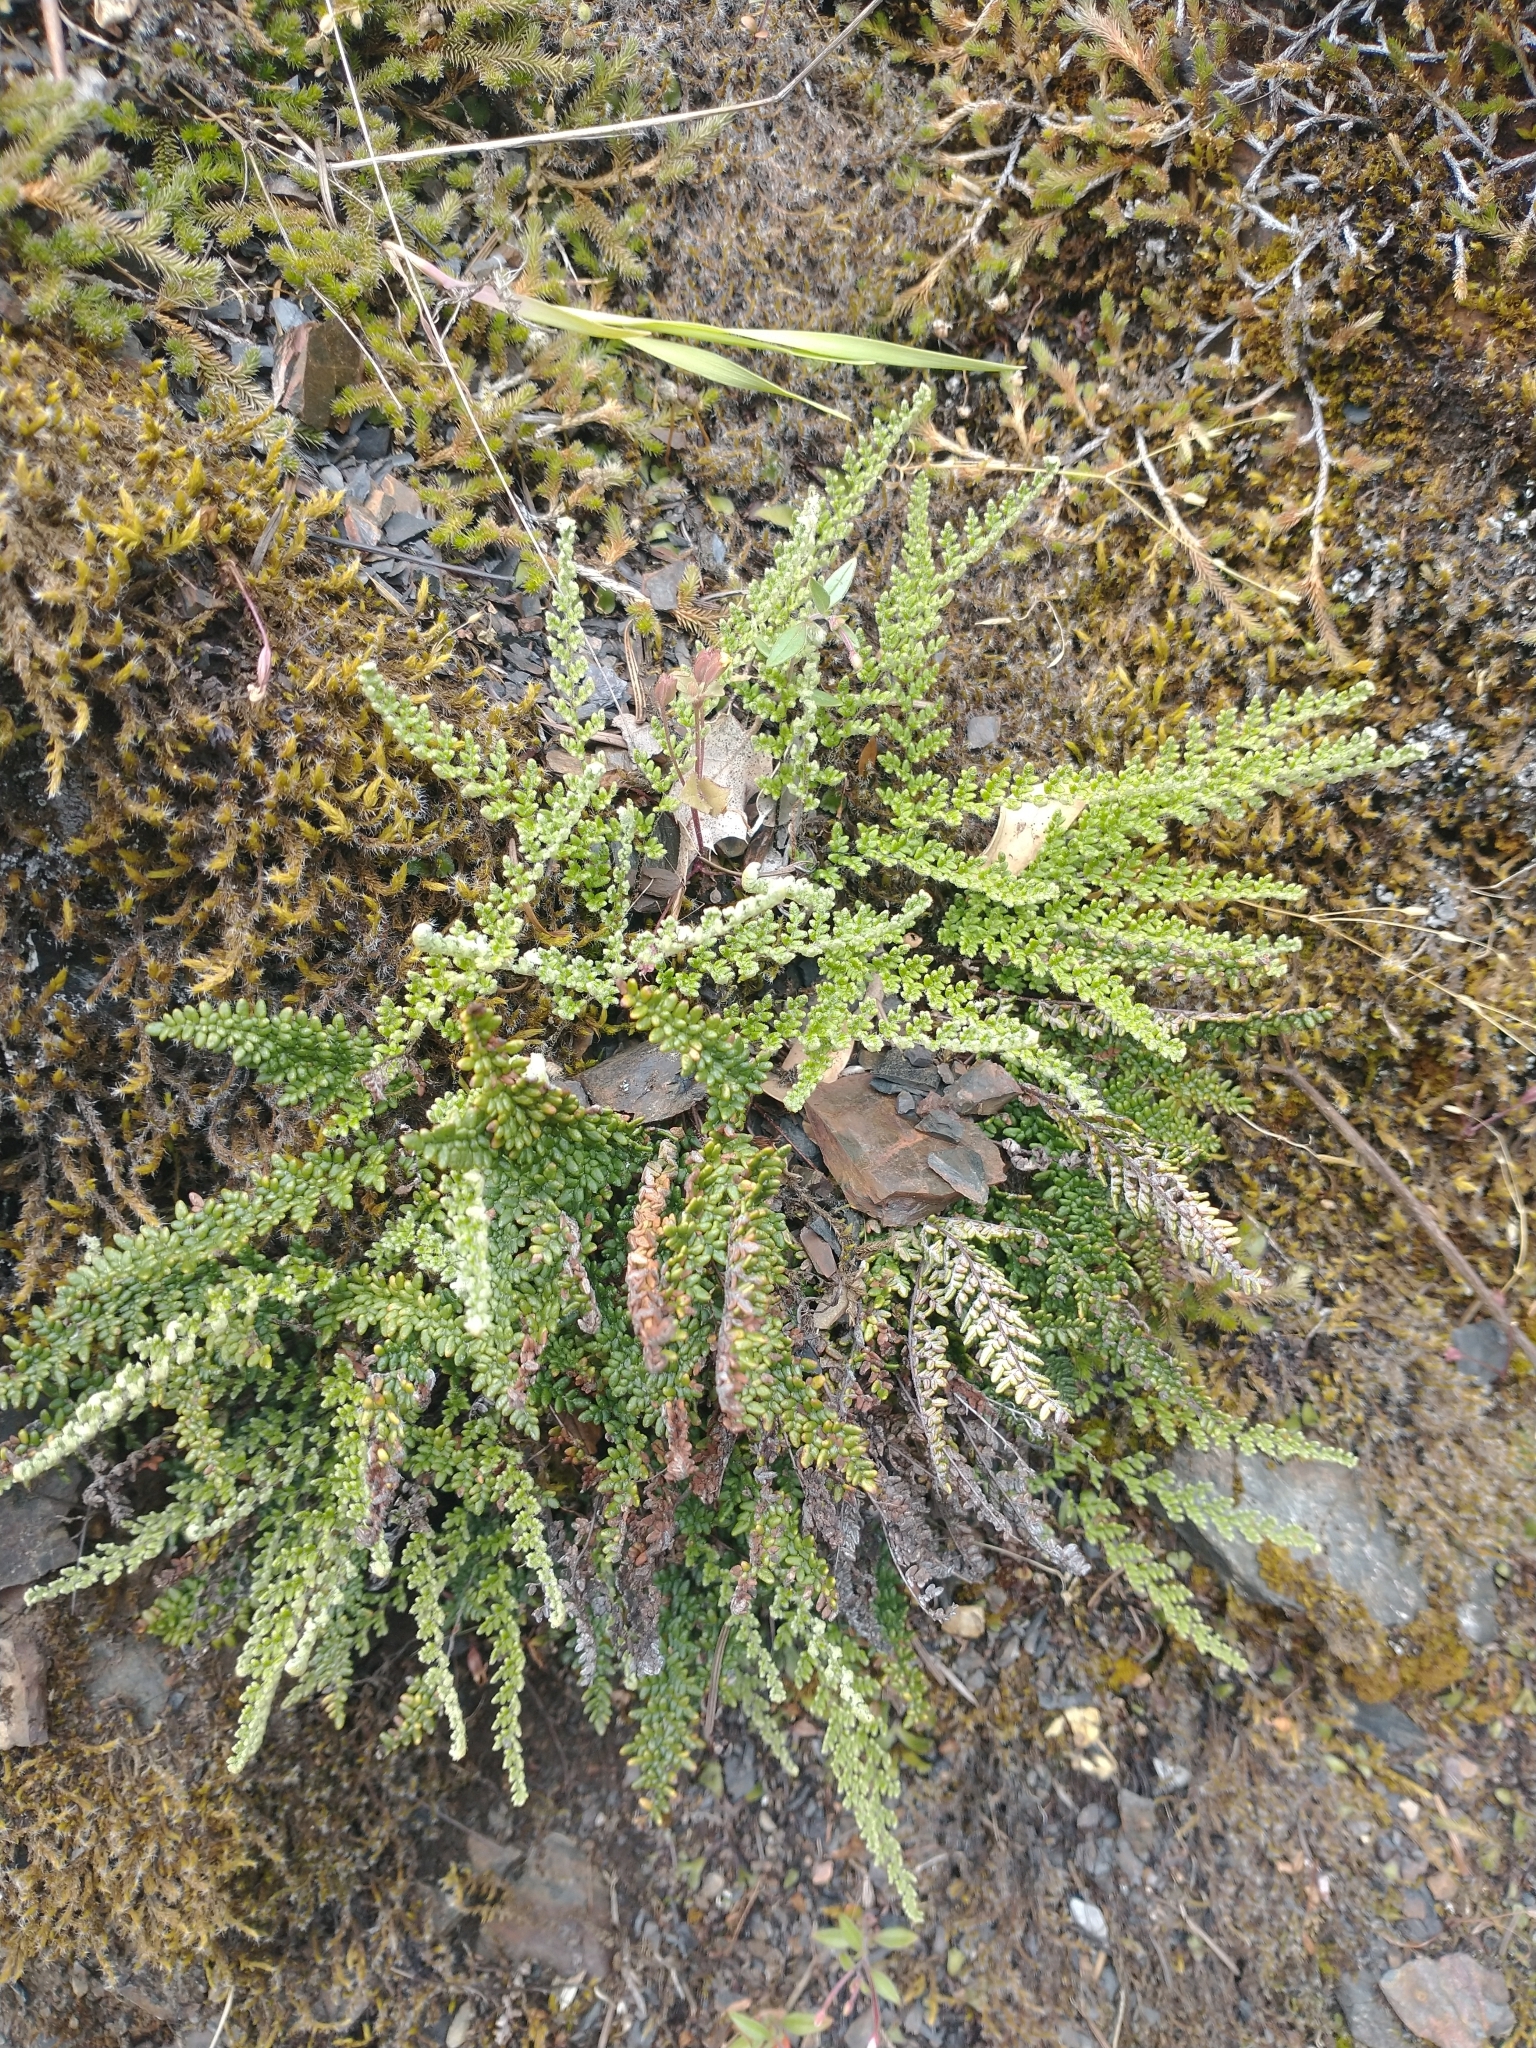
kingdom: Plantae
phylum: Tracheophyta
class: Polypodiopsida
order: Polypodiales
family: Pteridaceae
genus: Myriopteris
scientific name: Myriopteris gracillima
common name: Lace fern
